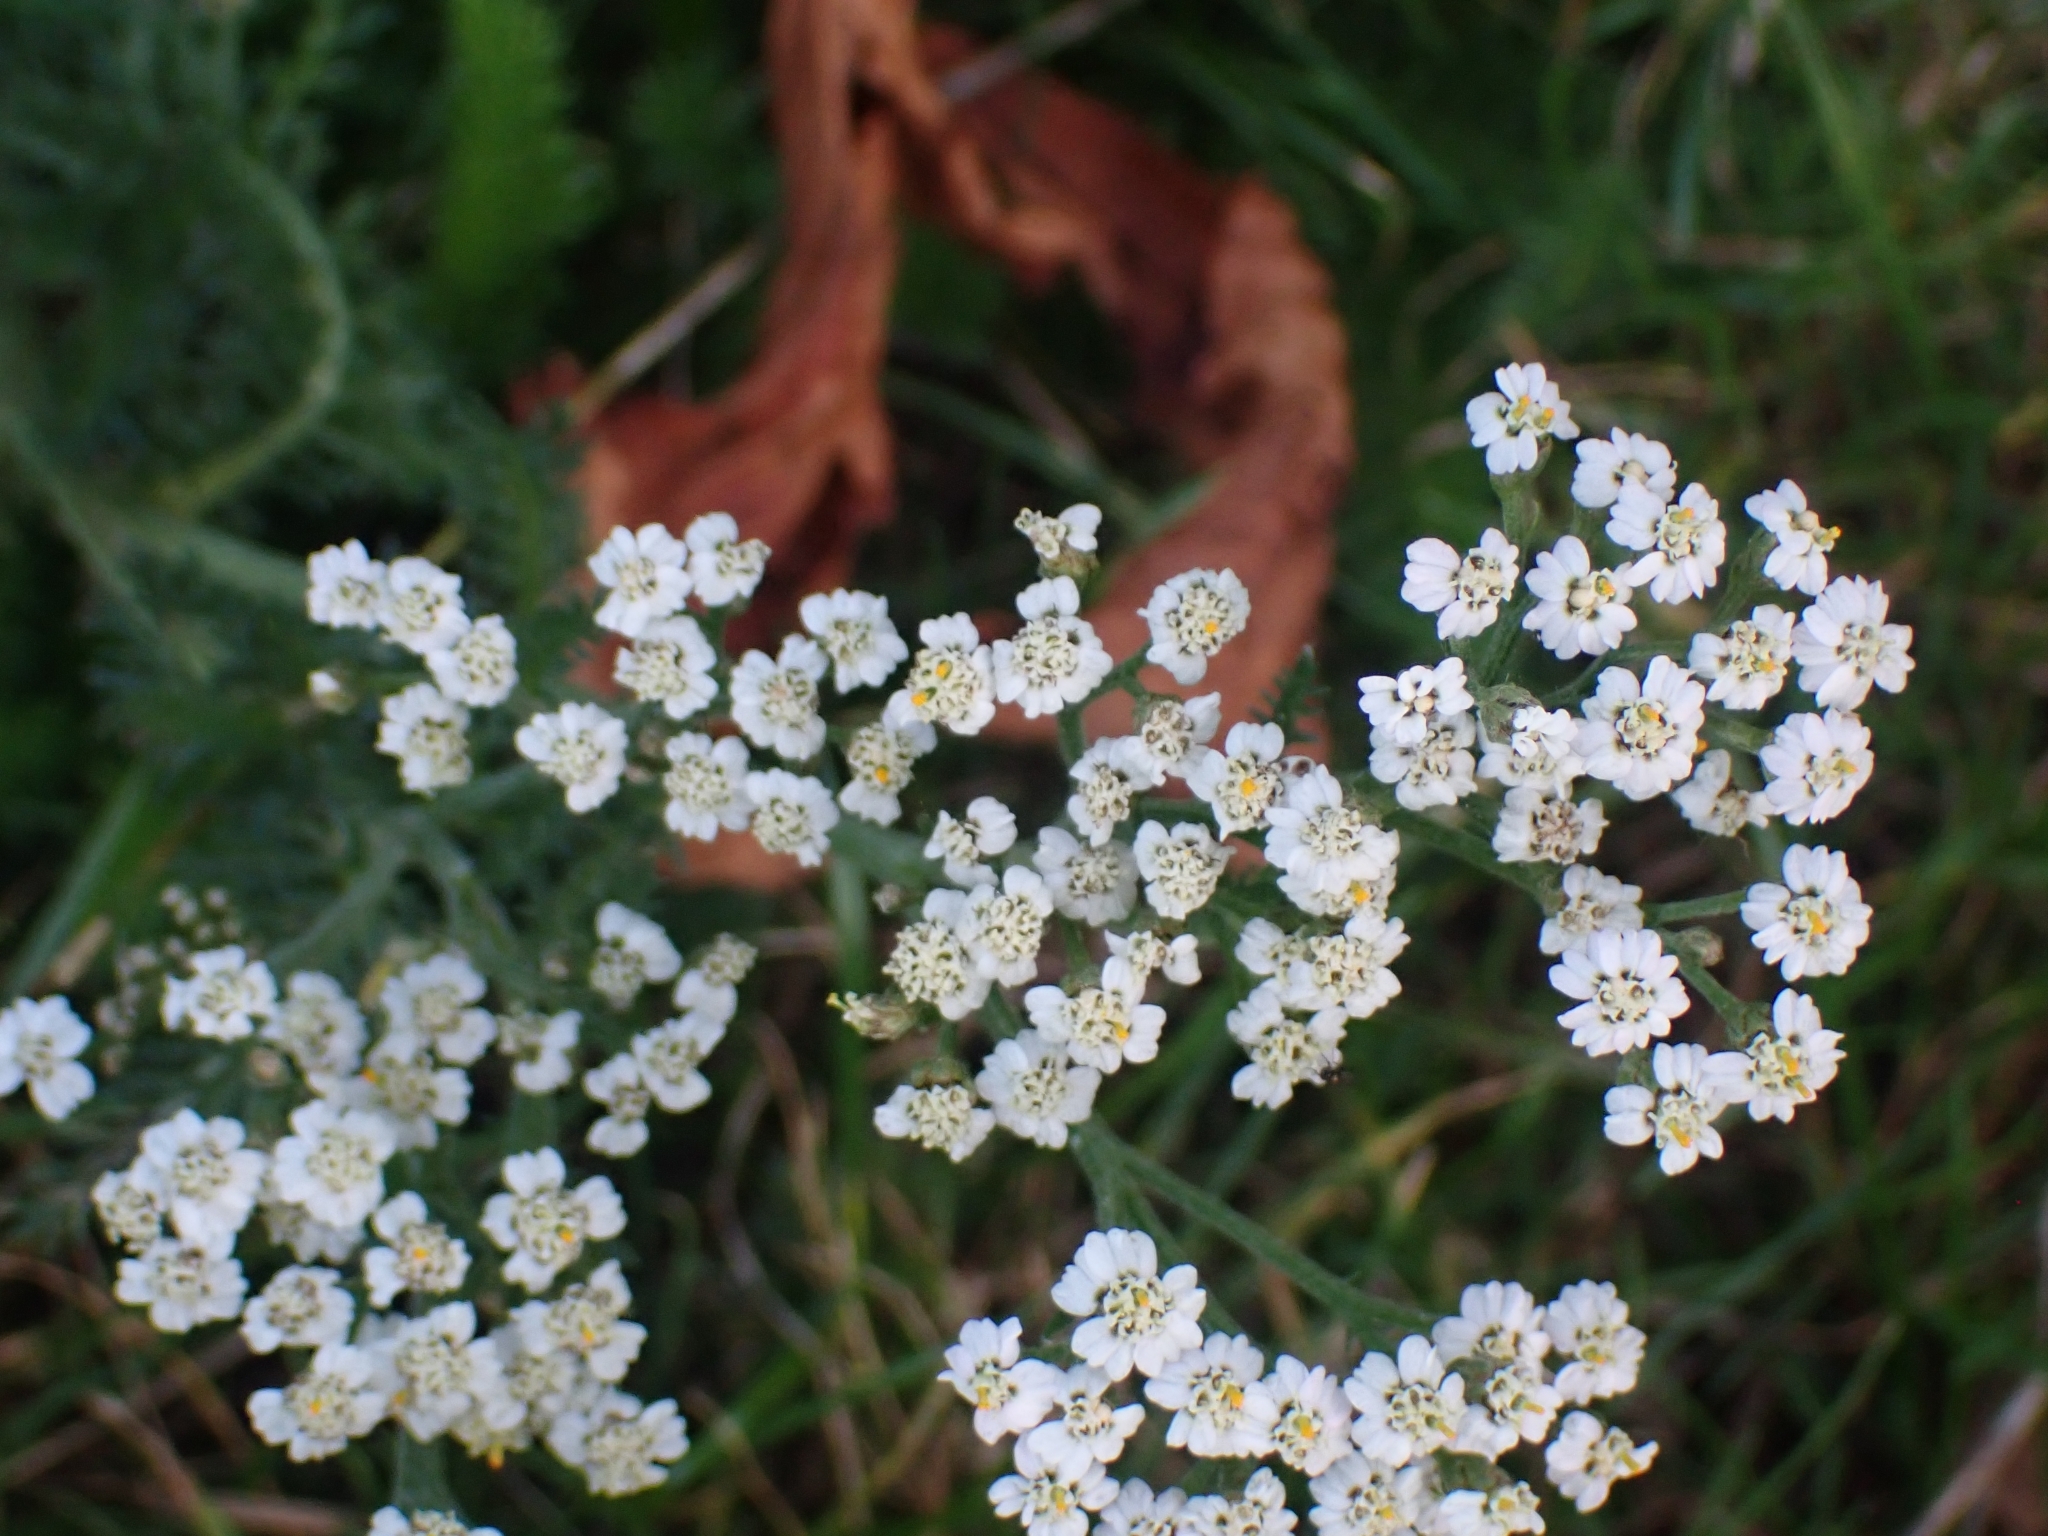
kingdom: Plantae
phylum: Tracheophyta
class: Magnoliopsida
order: Asterales
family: Asteraceae
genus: Achillea
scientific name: Achillea millefolium
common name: Yarrow
